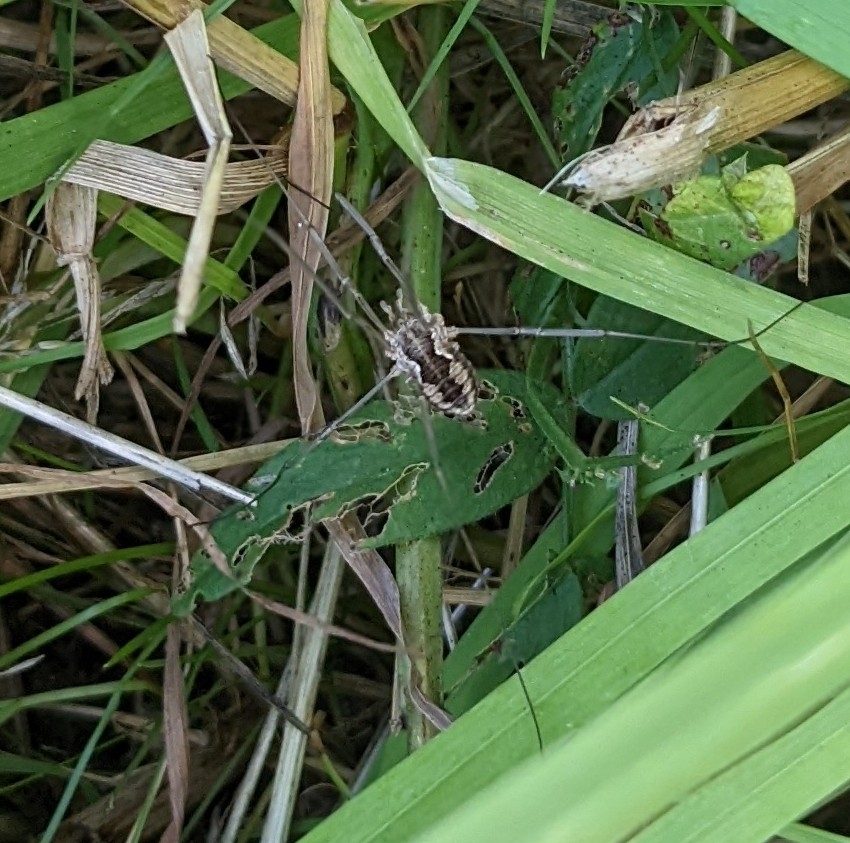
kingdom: Animalia
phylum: Arthropoda
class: Arachnida
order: Opiliones
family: Phalangiidae
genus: Phalangium
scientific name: Phalangium opilio
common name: Daddy longleg
